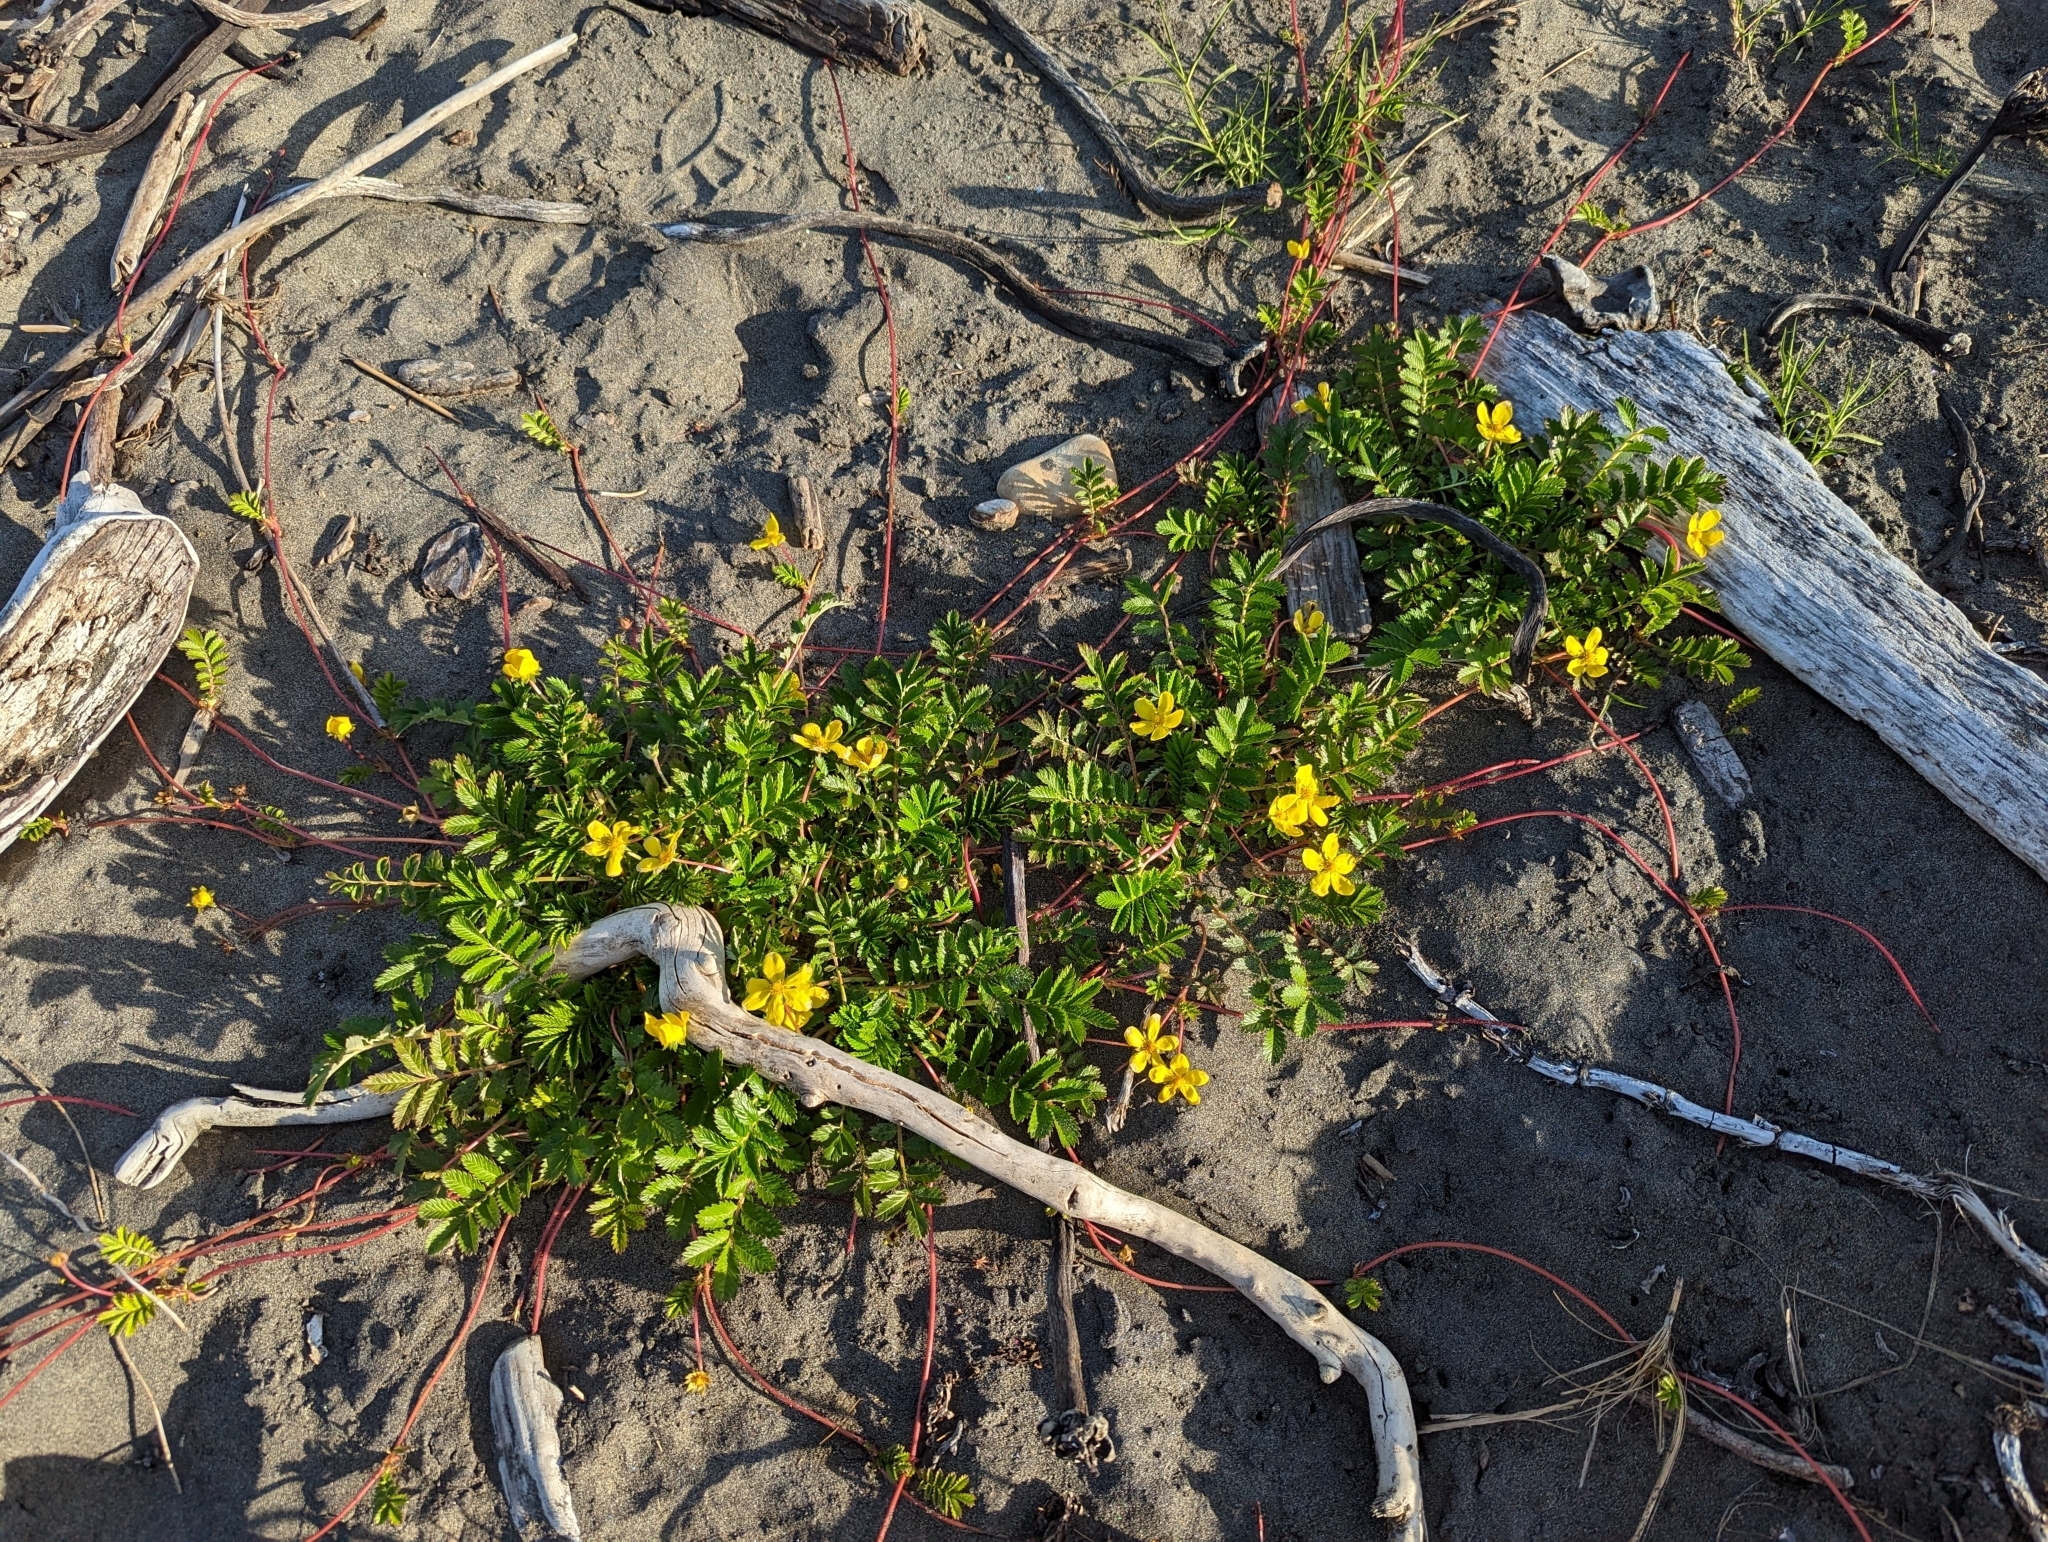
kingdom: Plantae
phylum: Tracheophyta
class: Magnoliopsida
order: Rosales
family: Rosaceae
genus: Argentina
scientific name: Argentina anserina
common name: Common silverweed
